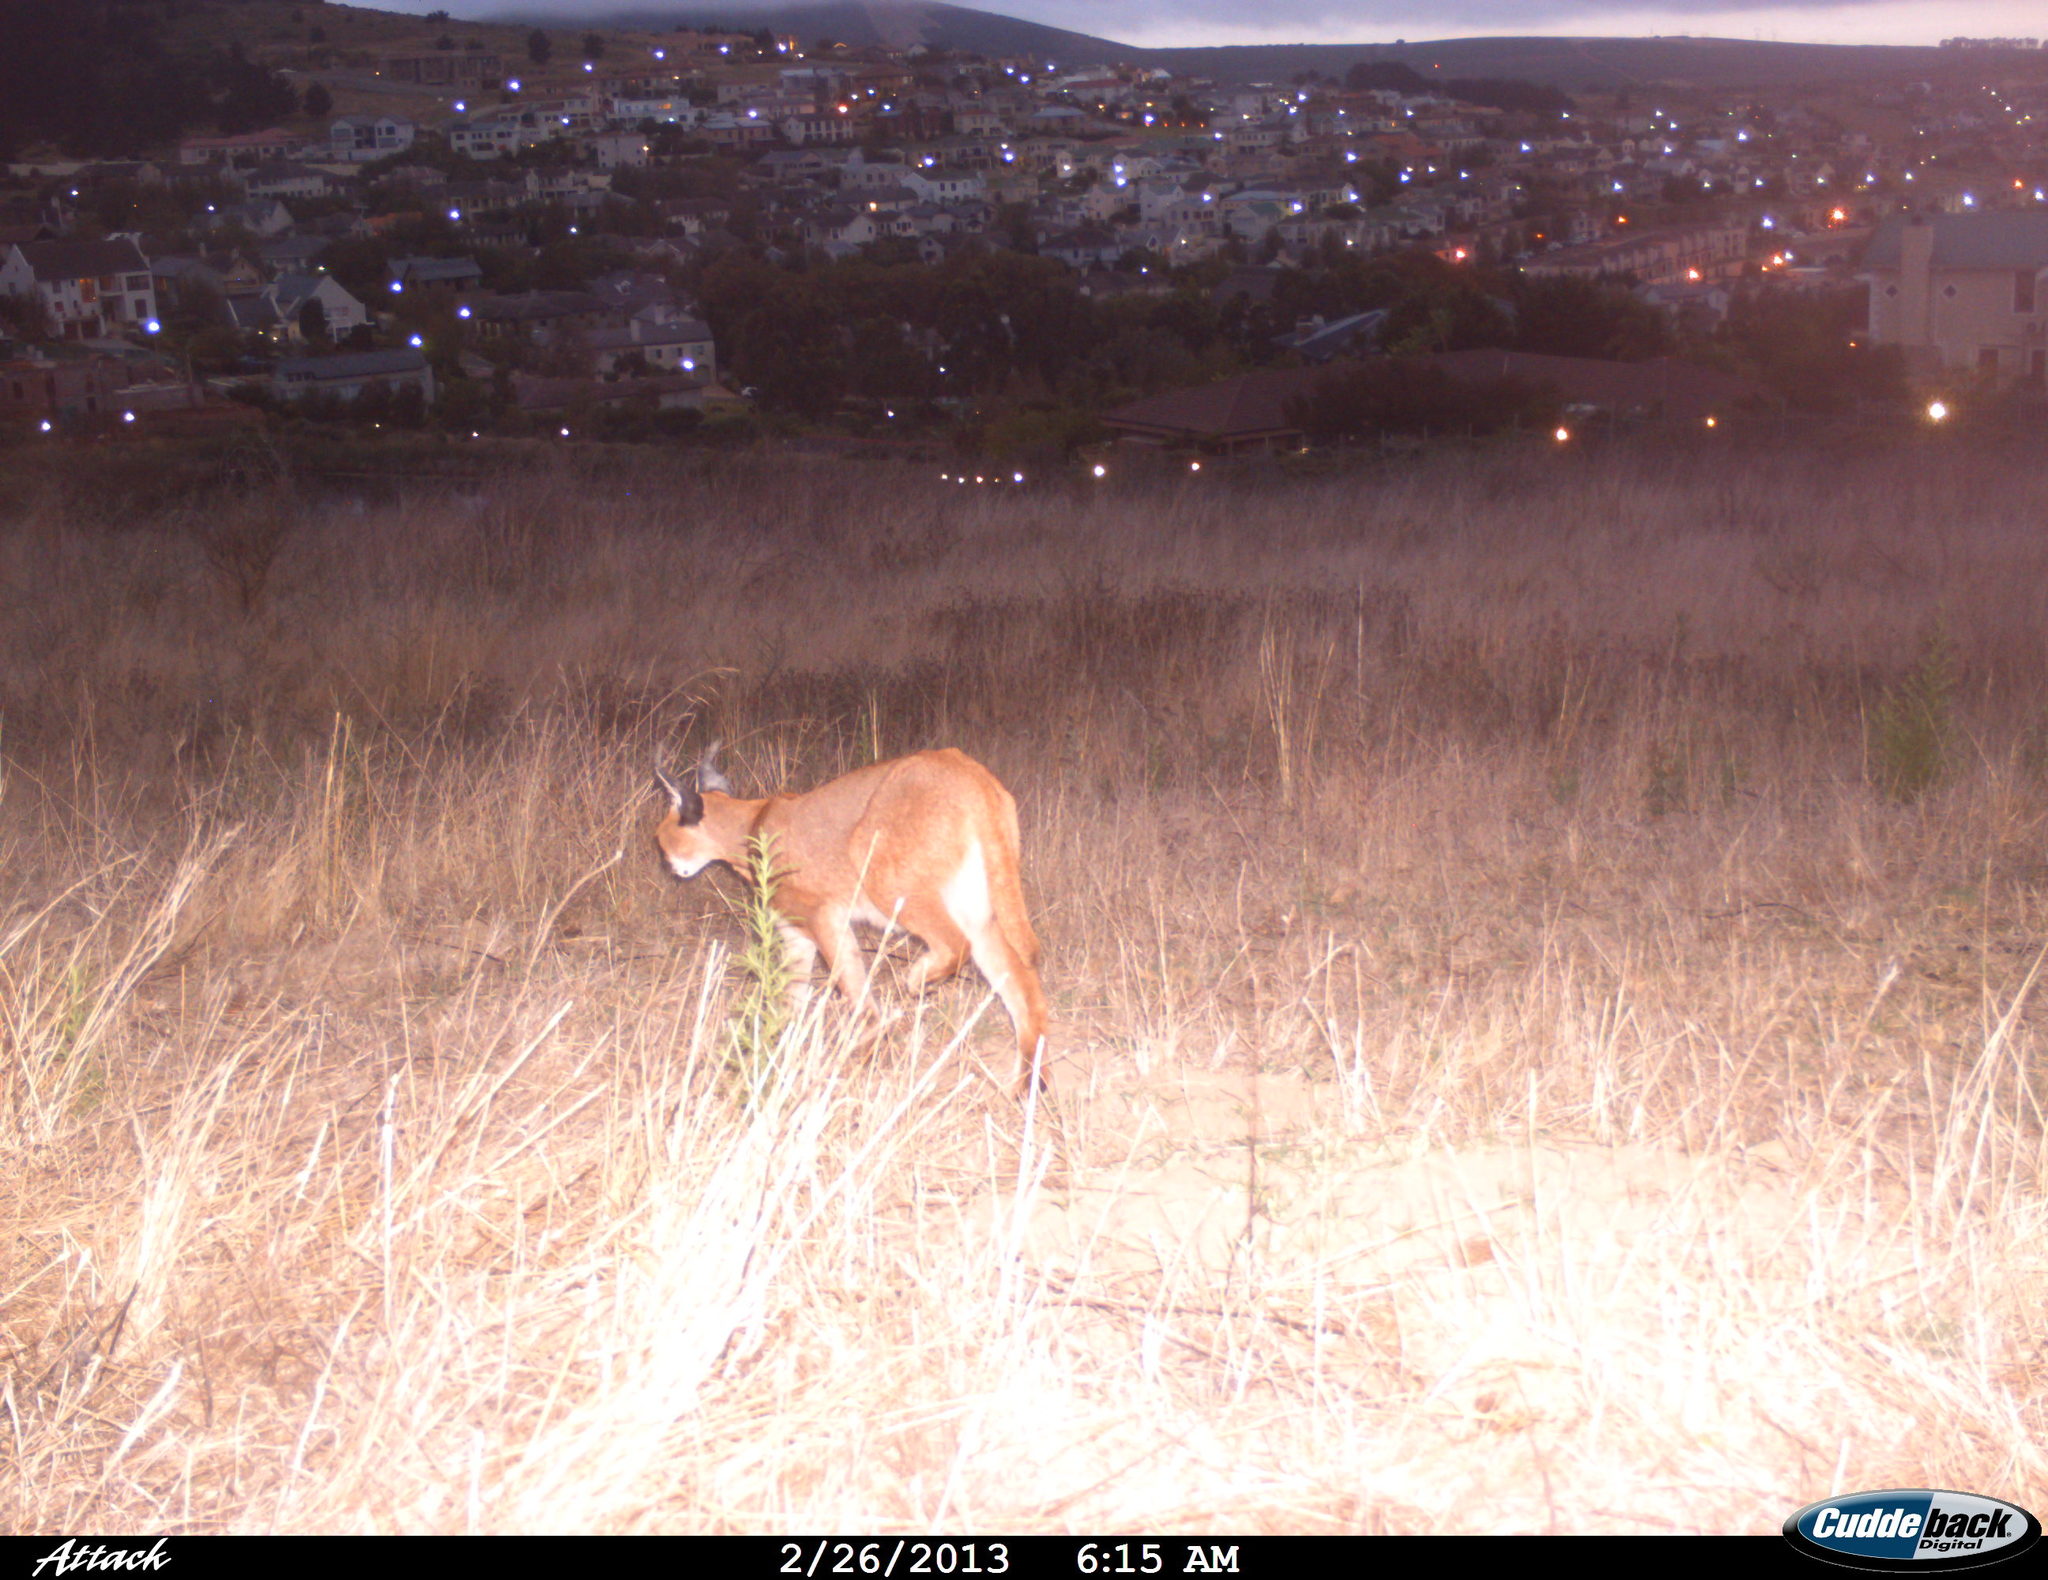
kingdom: Animalia
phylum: Chordata
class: Mammalia
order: Carnivora
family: Felidae
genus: Caracal
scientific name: Caracal caracal
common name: Caracal
